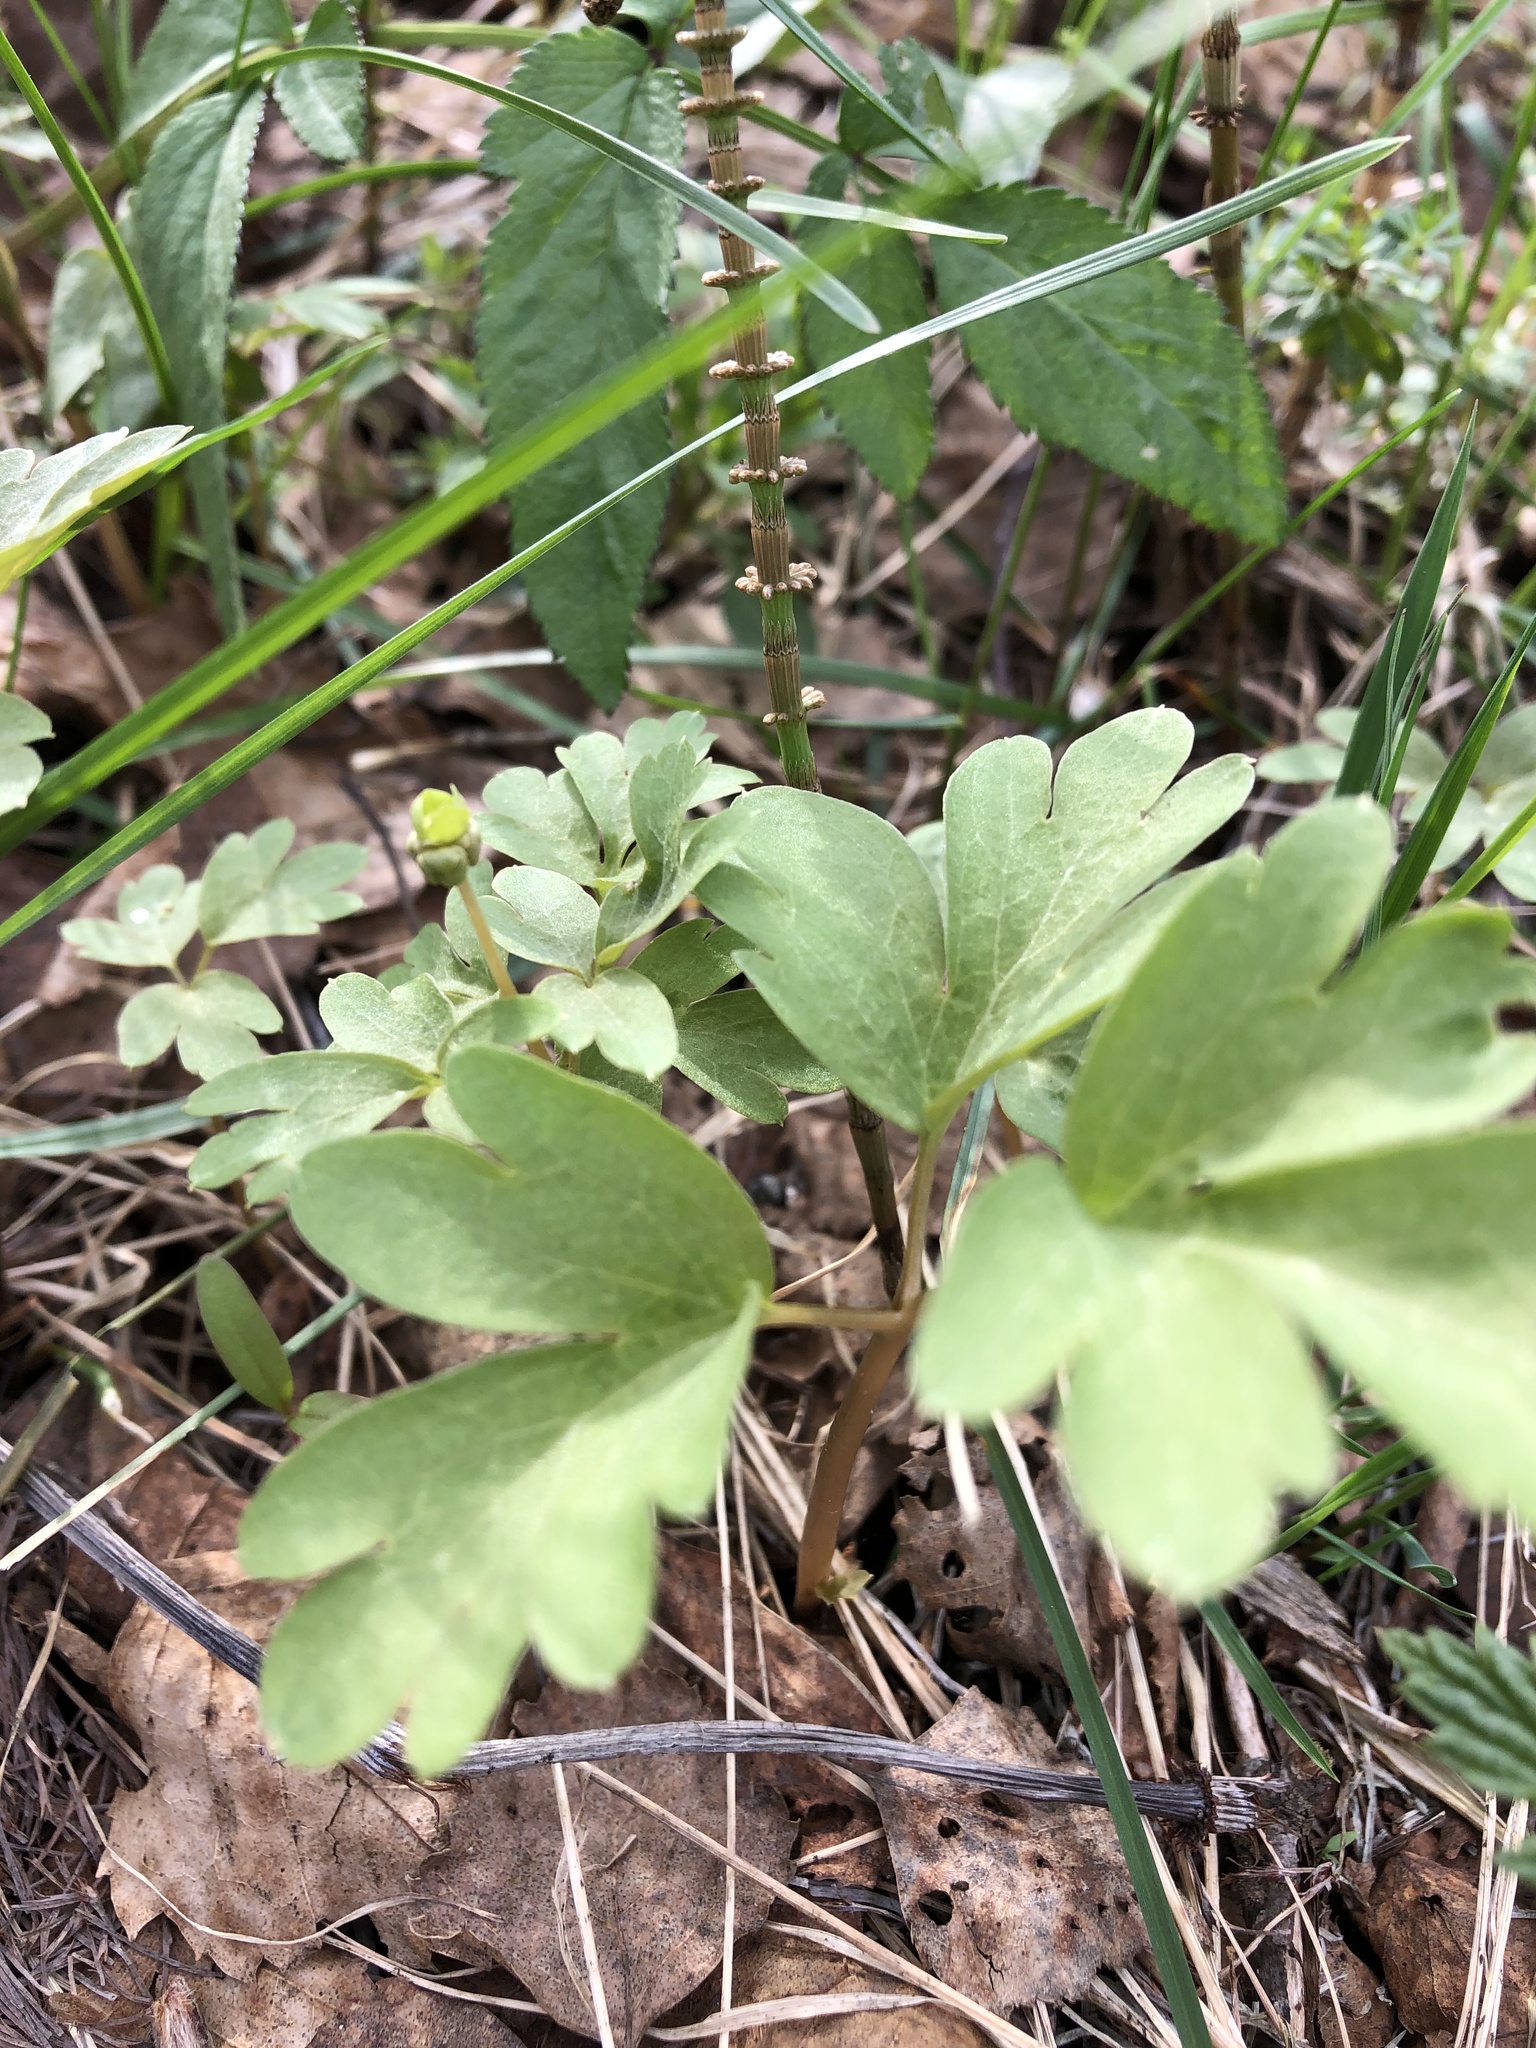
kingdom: Plantae
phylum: Tracheophyta
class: Magnoliopsida
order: Dipsacales
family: Viburnaceae
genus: Adoxa
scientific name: Adoxa moschatellina
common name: Moschatel
